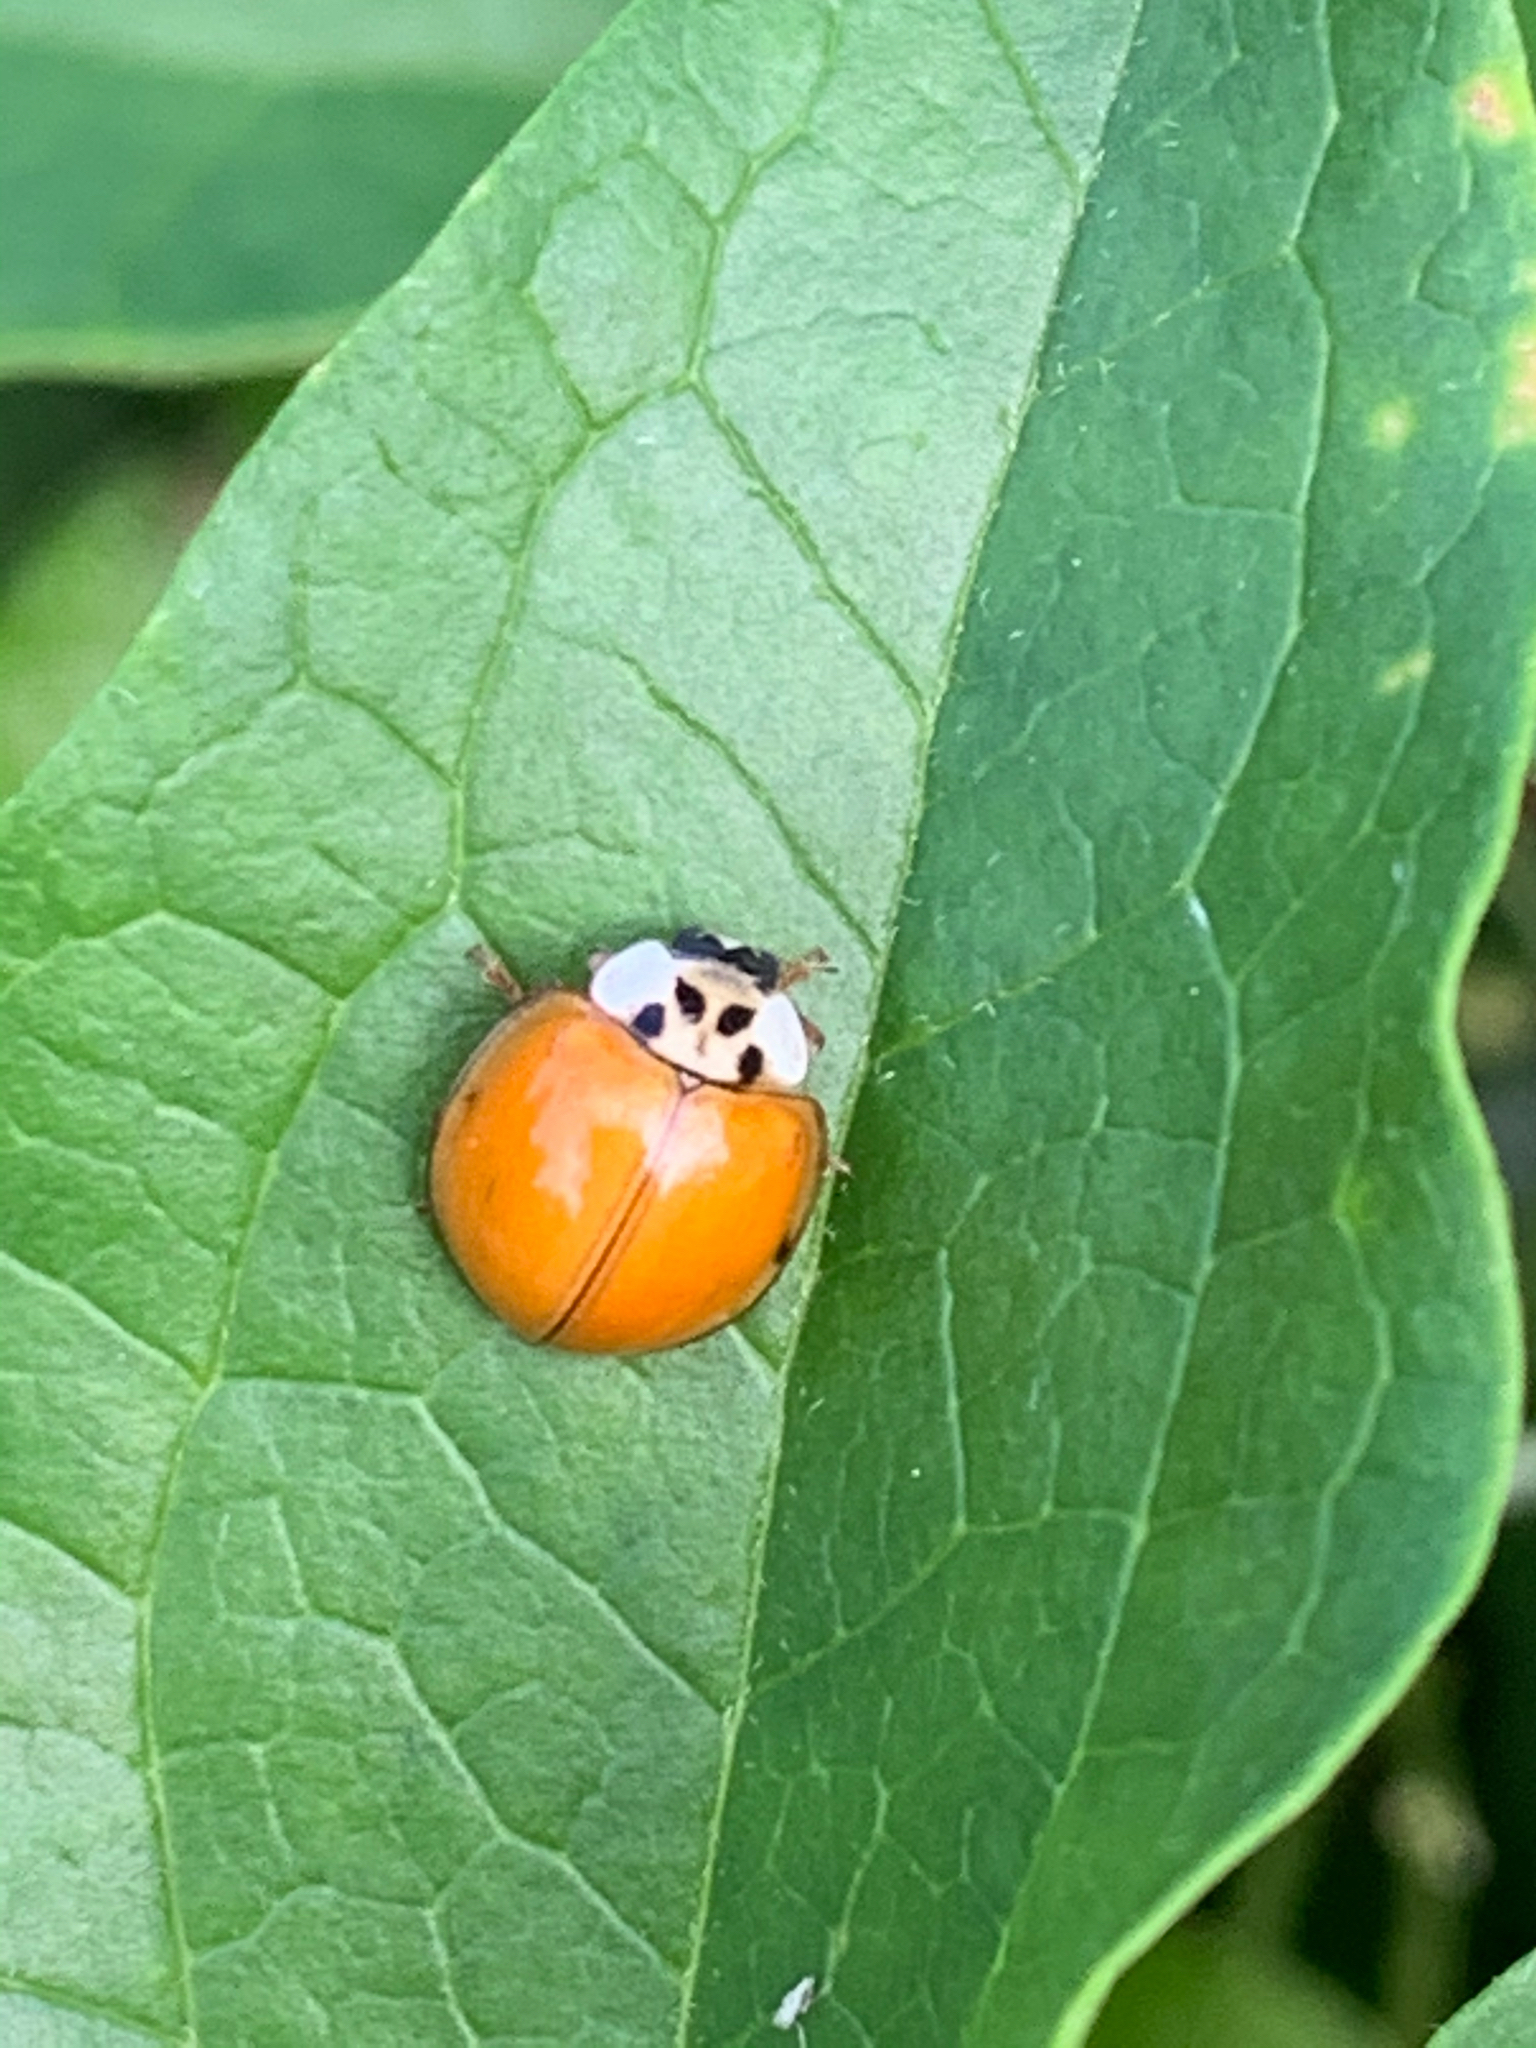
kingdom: Animalia
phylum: Arthropoda
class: Insecta
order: Coleoptera
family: Coccinellidae
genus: Harmonia
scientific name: Harmonia axyridis
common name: Harlequin ladybird
